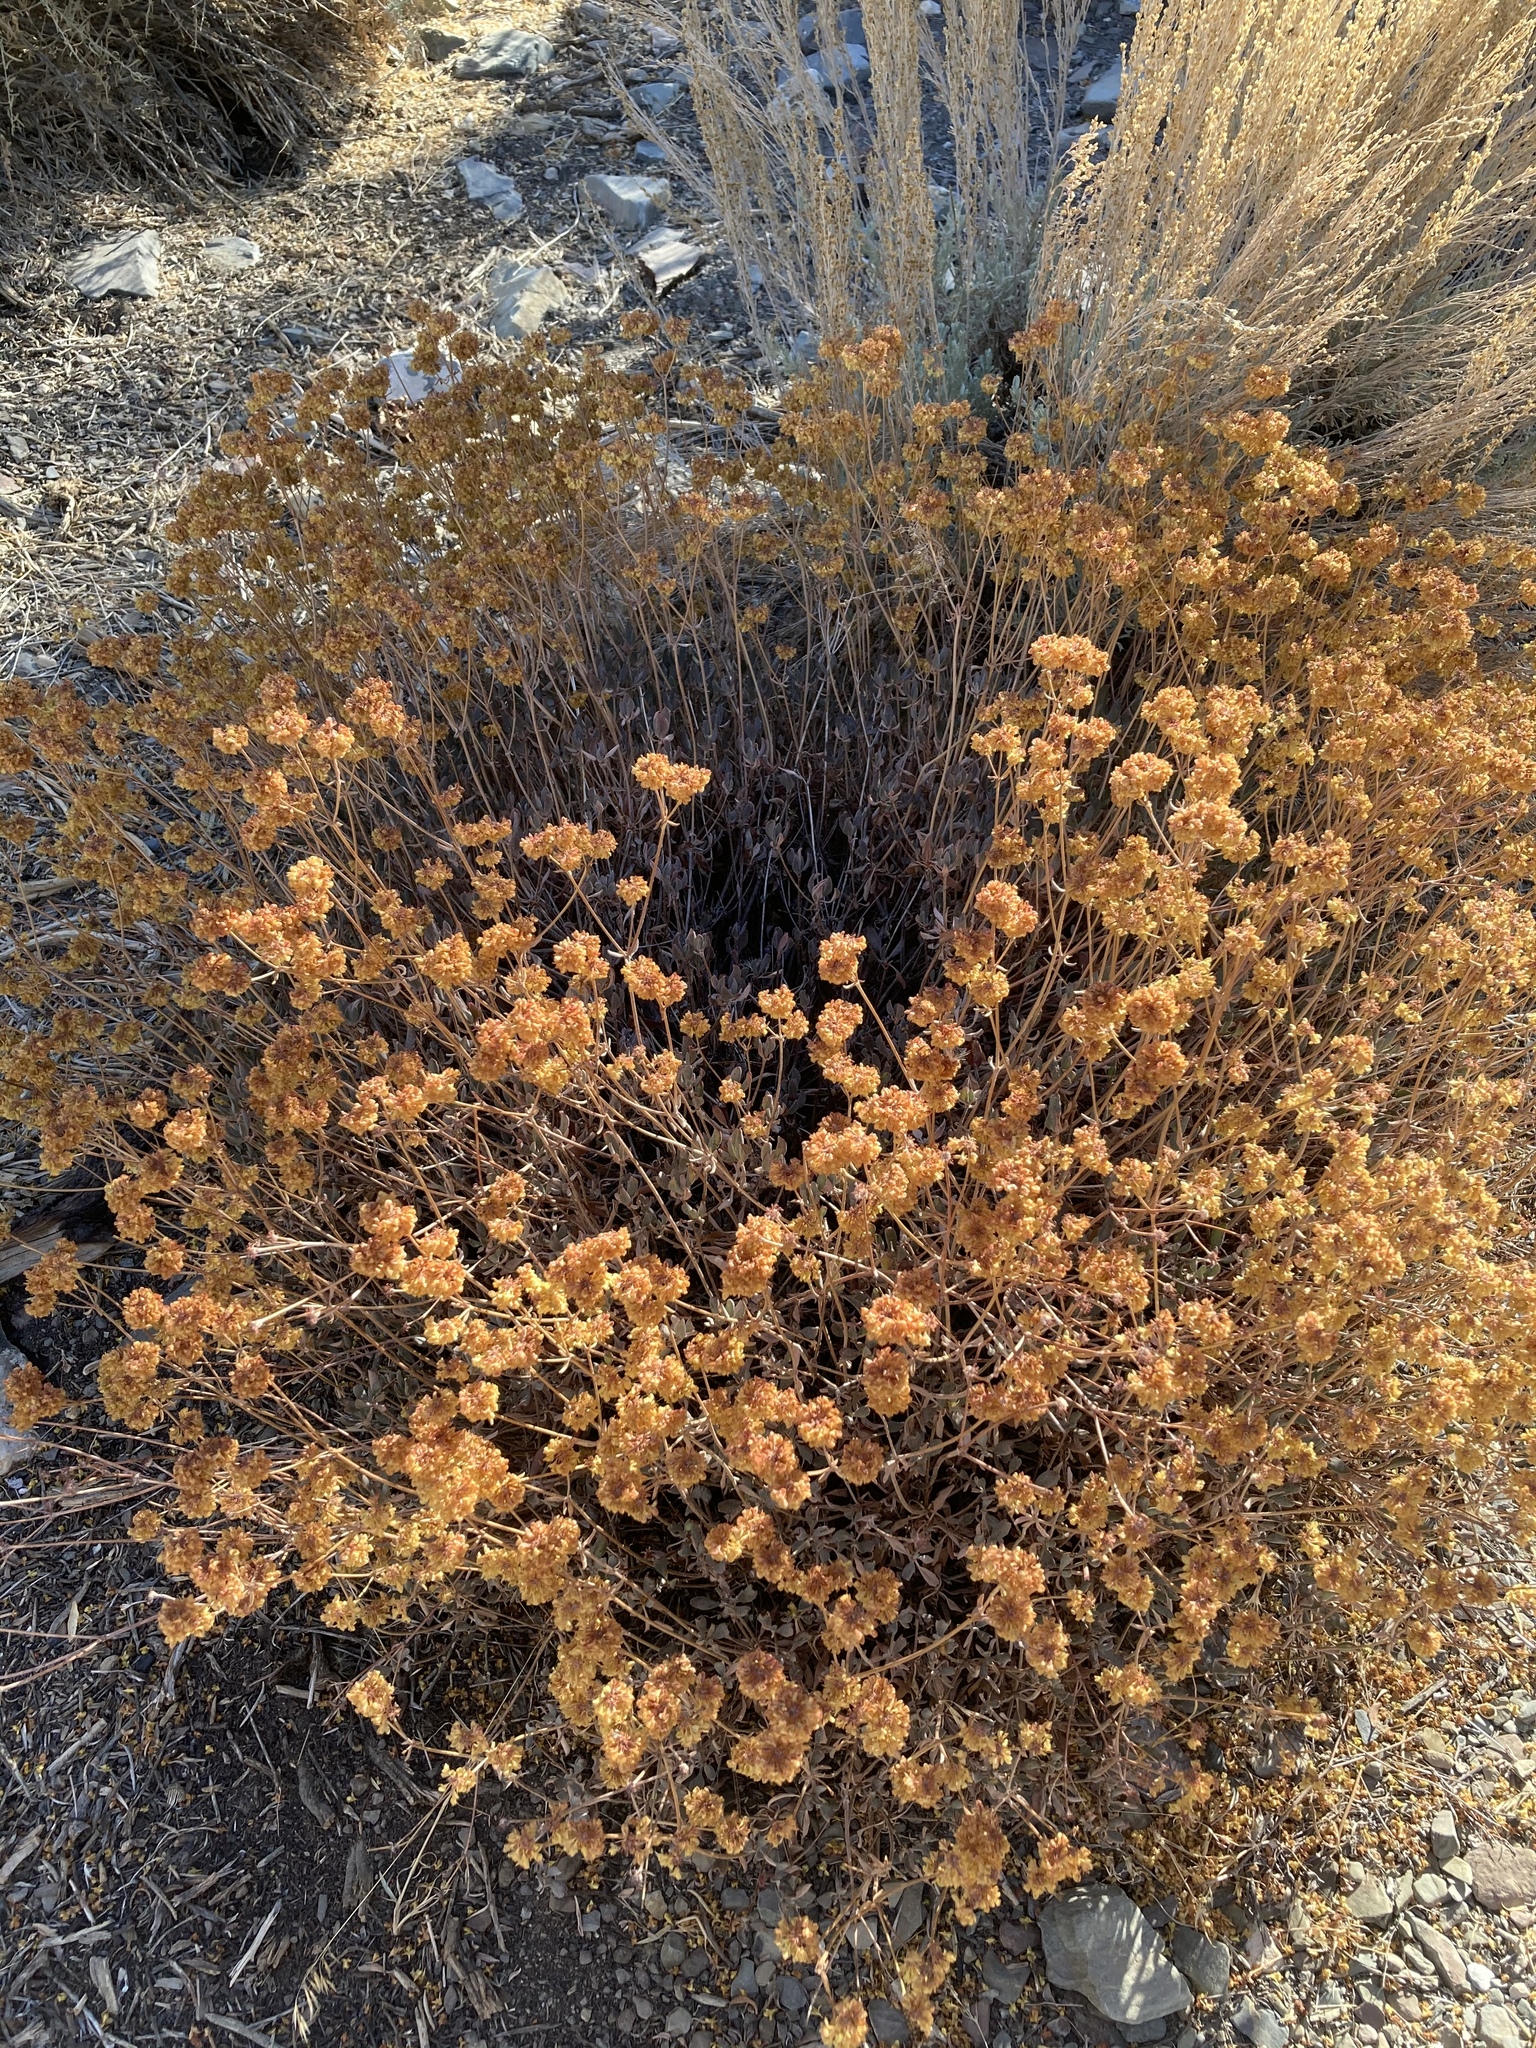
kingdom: Plantae
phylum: Tracheophyta
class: Magnoliopsida
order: Caryophyllales
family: Polygonaceae
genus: Eriogonum
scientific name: Eriogonum umbellatum
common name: Sulfur-buckwheat
